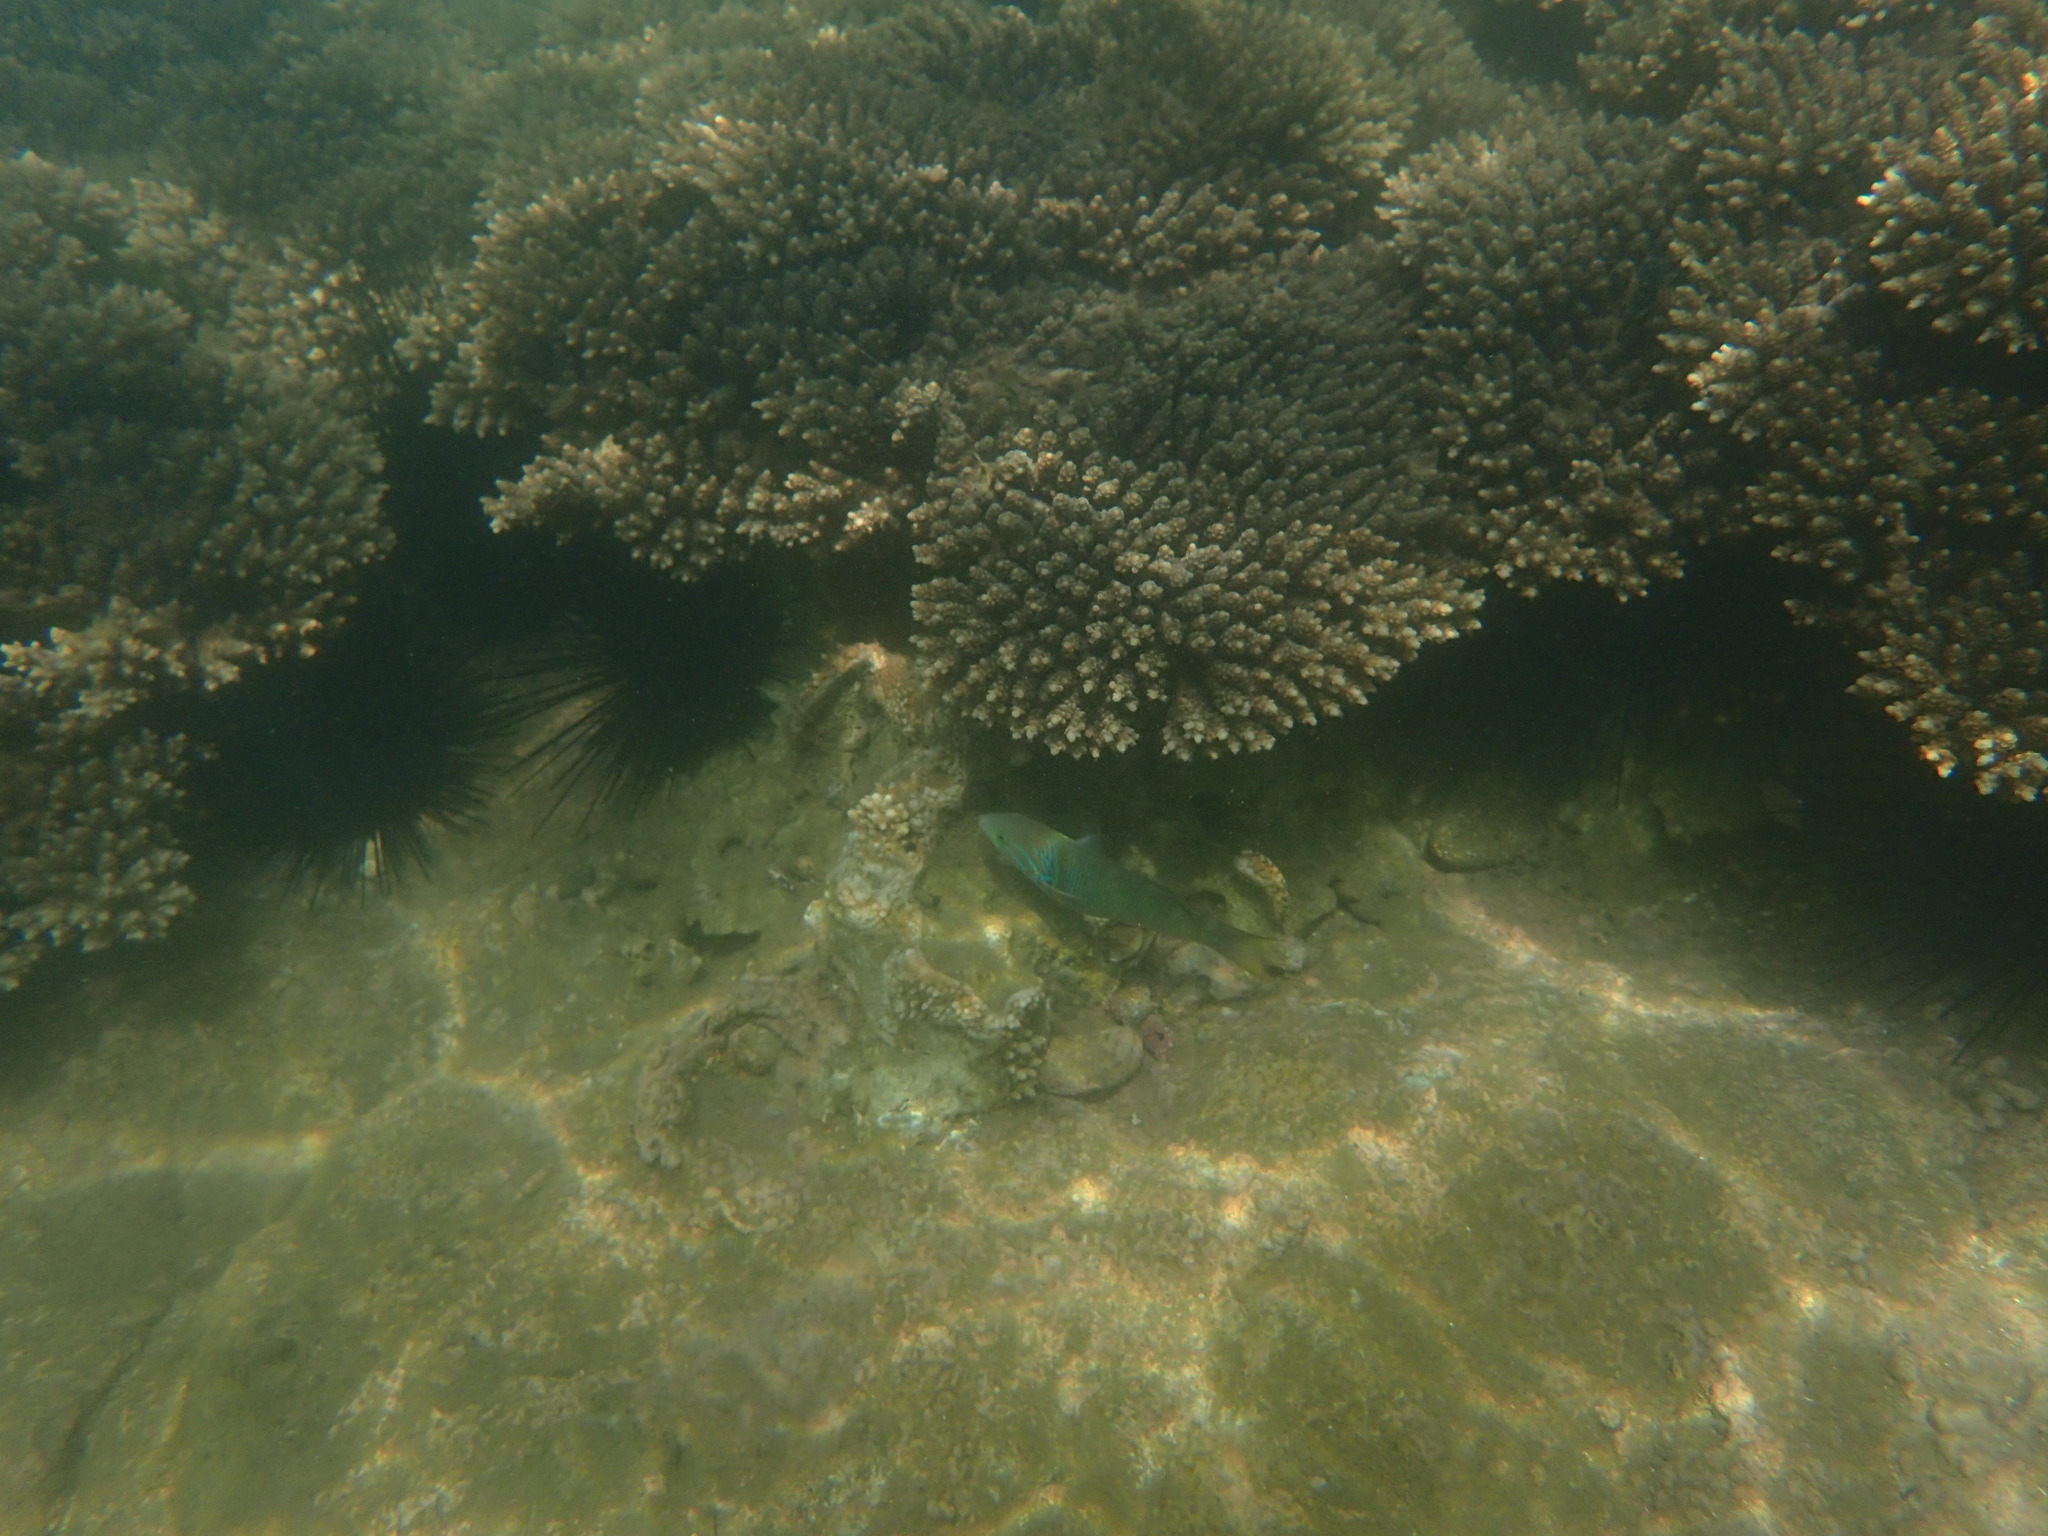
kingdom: Animalia
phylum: Chordata
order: Perciformes
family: Labridae
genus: Thalassoma
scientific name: Thalassoma hebraicum
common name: Goldbar wrasse
